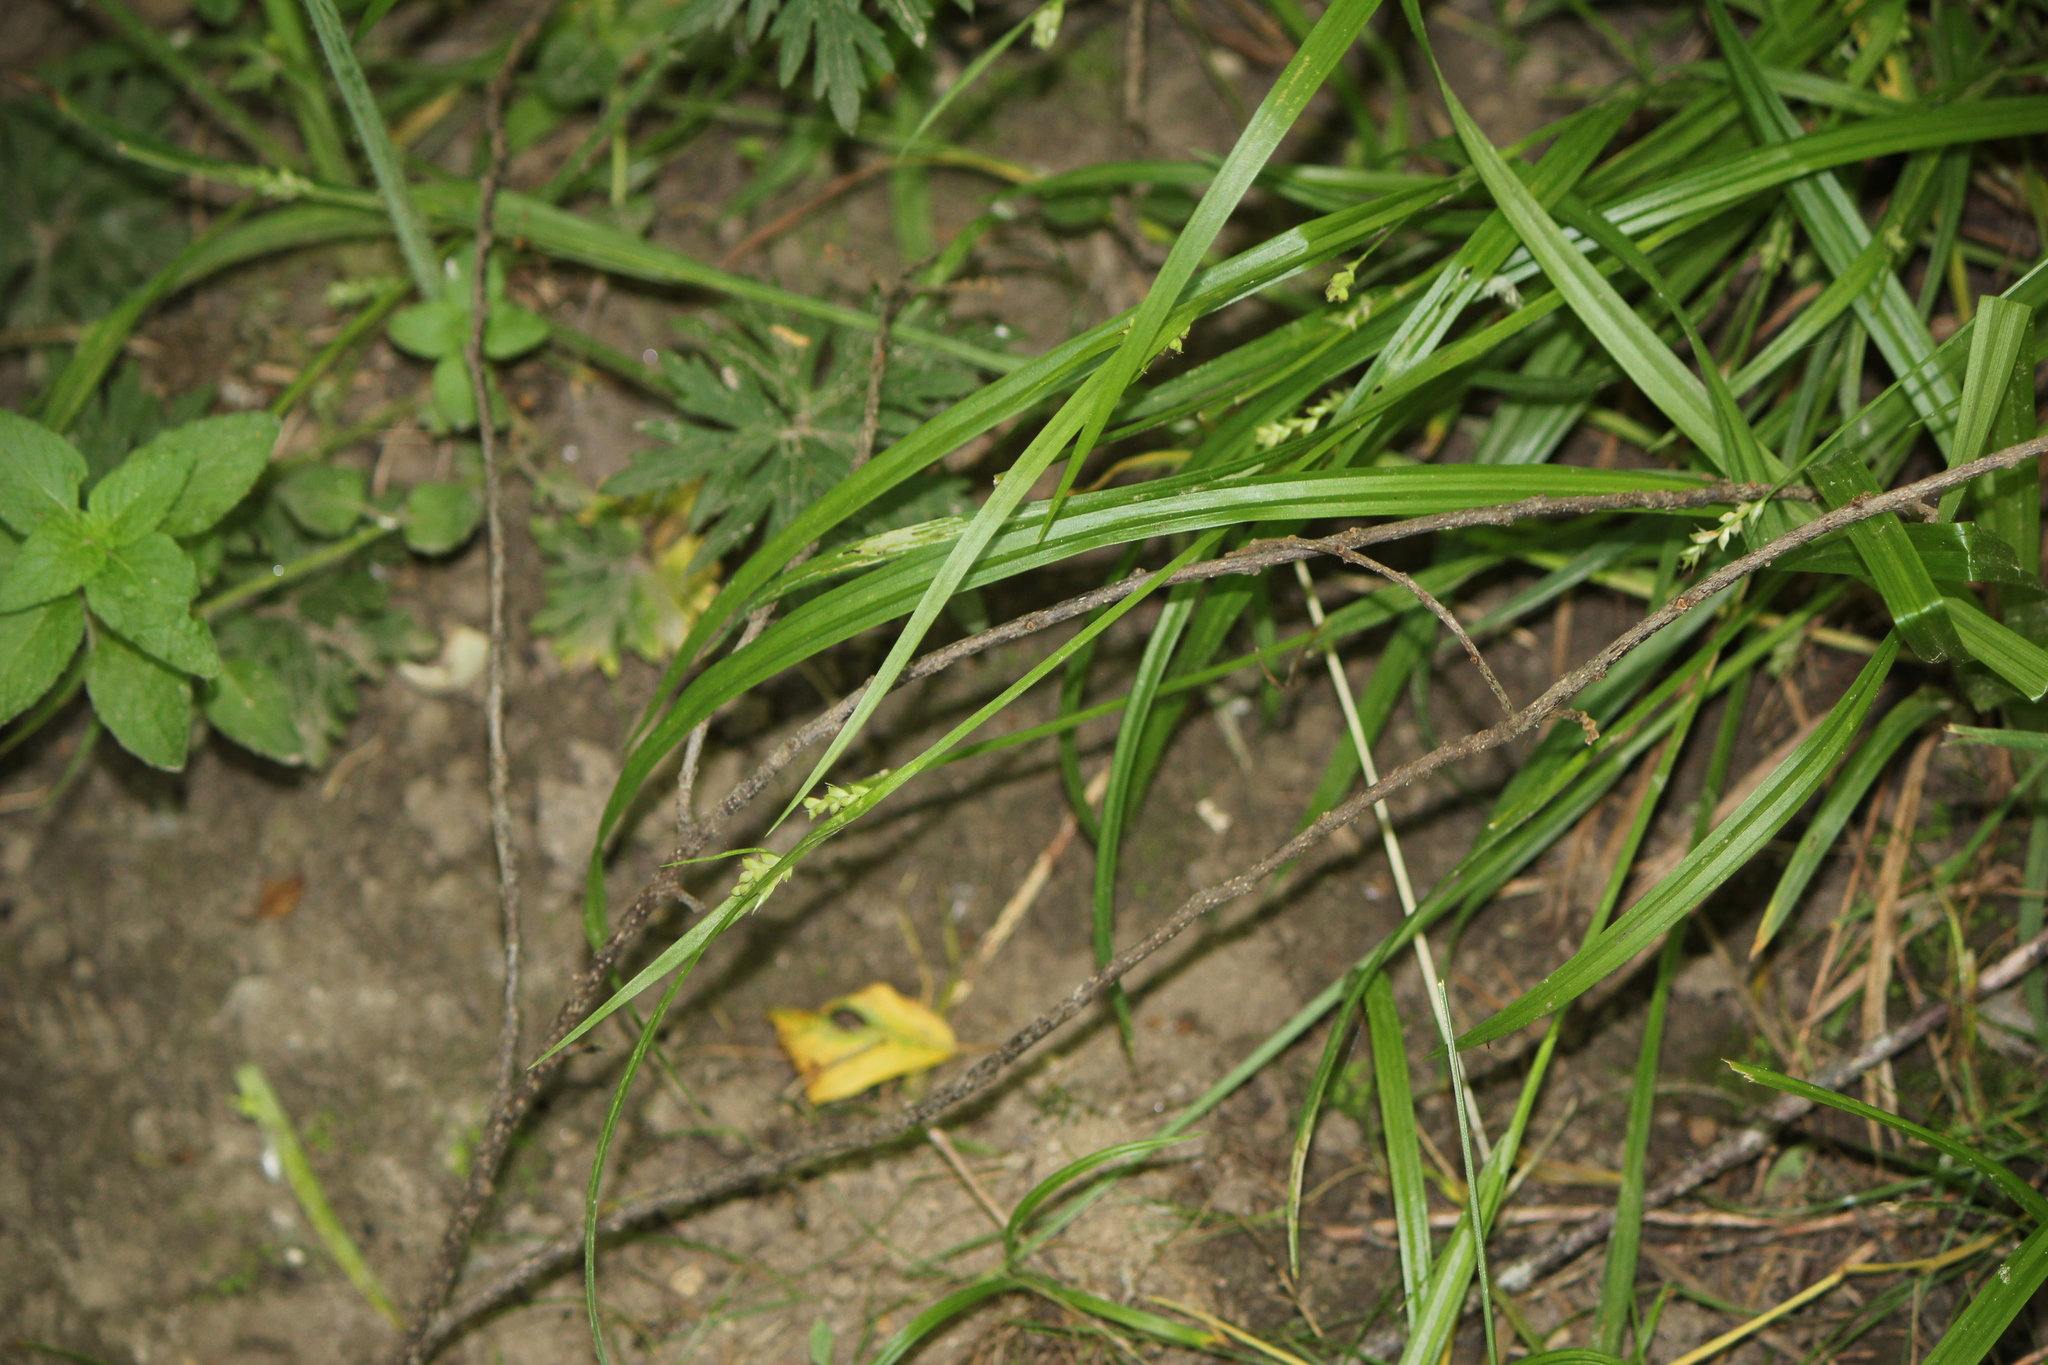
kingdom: Plantae
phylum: Tracheophyta
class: Liliopsida
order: Poales
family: Cyperaceae
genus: Carex
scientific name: Carex blanda
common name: Bland sedge
